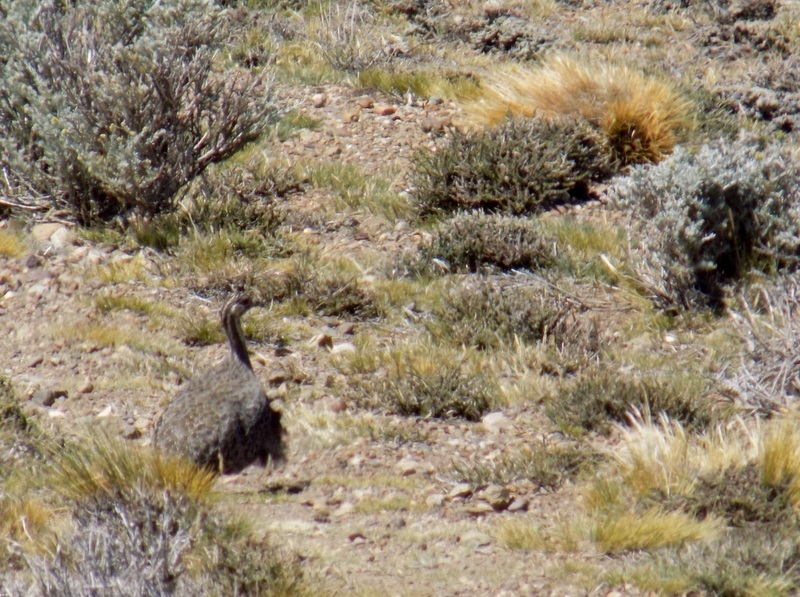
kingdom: Animalia
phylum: Chordata
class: Aves
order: Tinamiformes
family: Tinamidae
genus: Tinamotis
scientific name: Tinamotis ingoufi
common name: Patagonian tinamou
